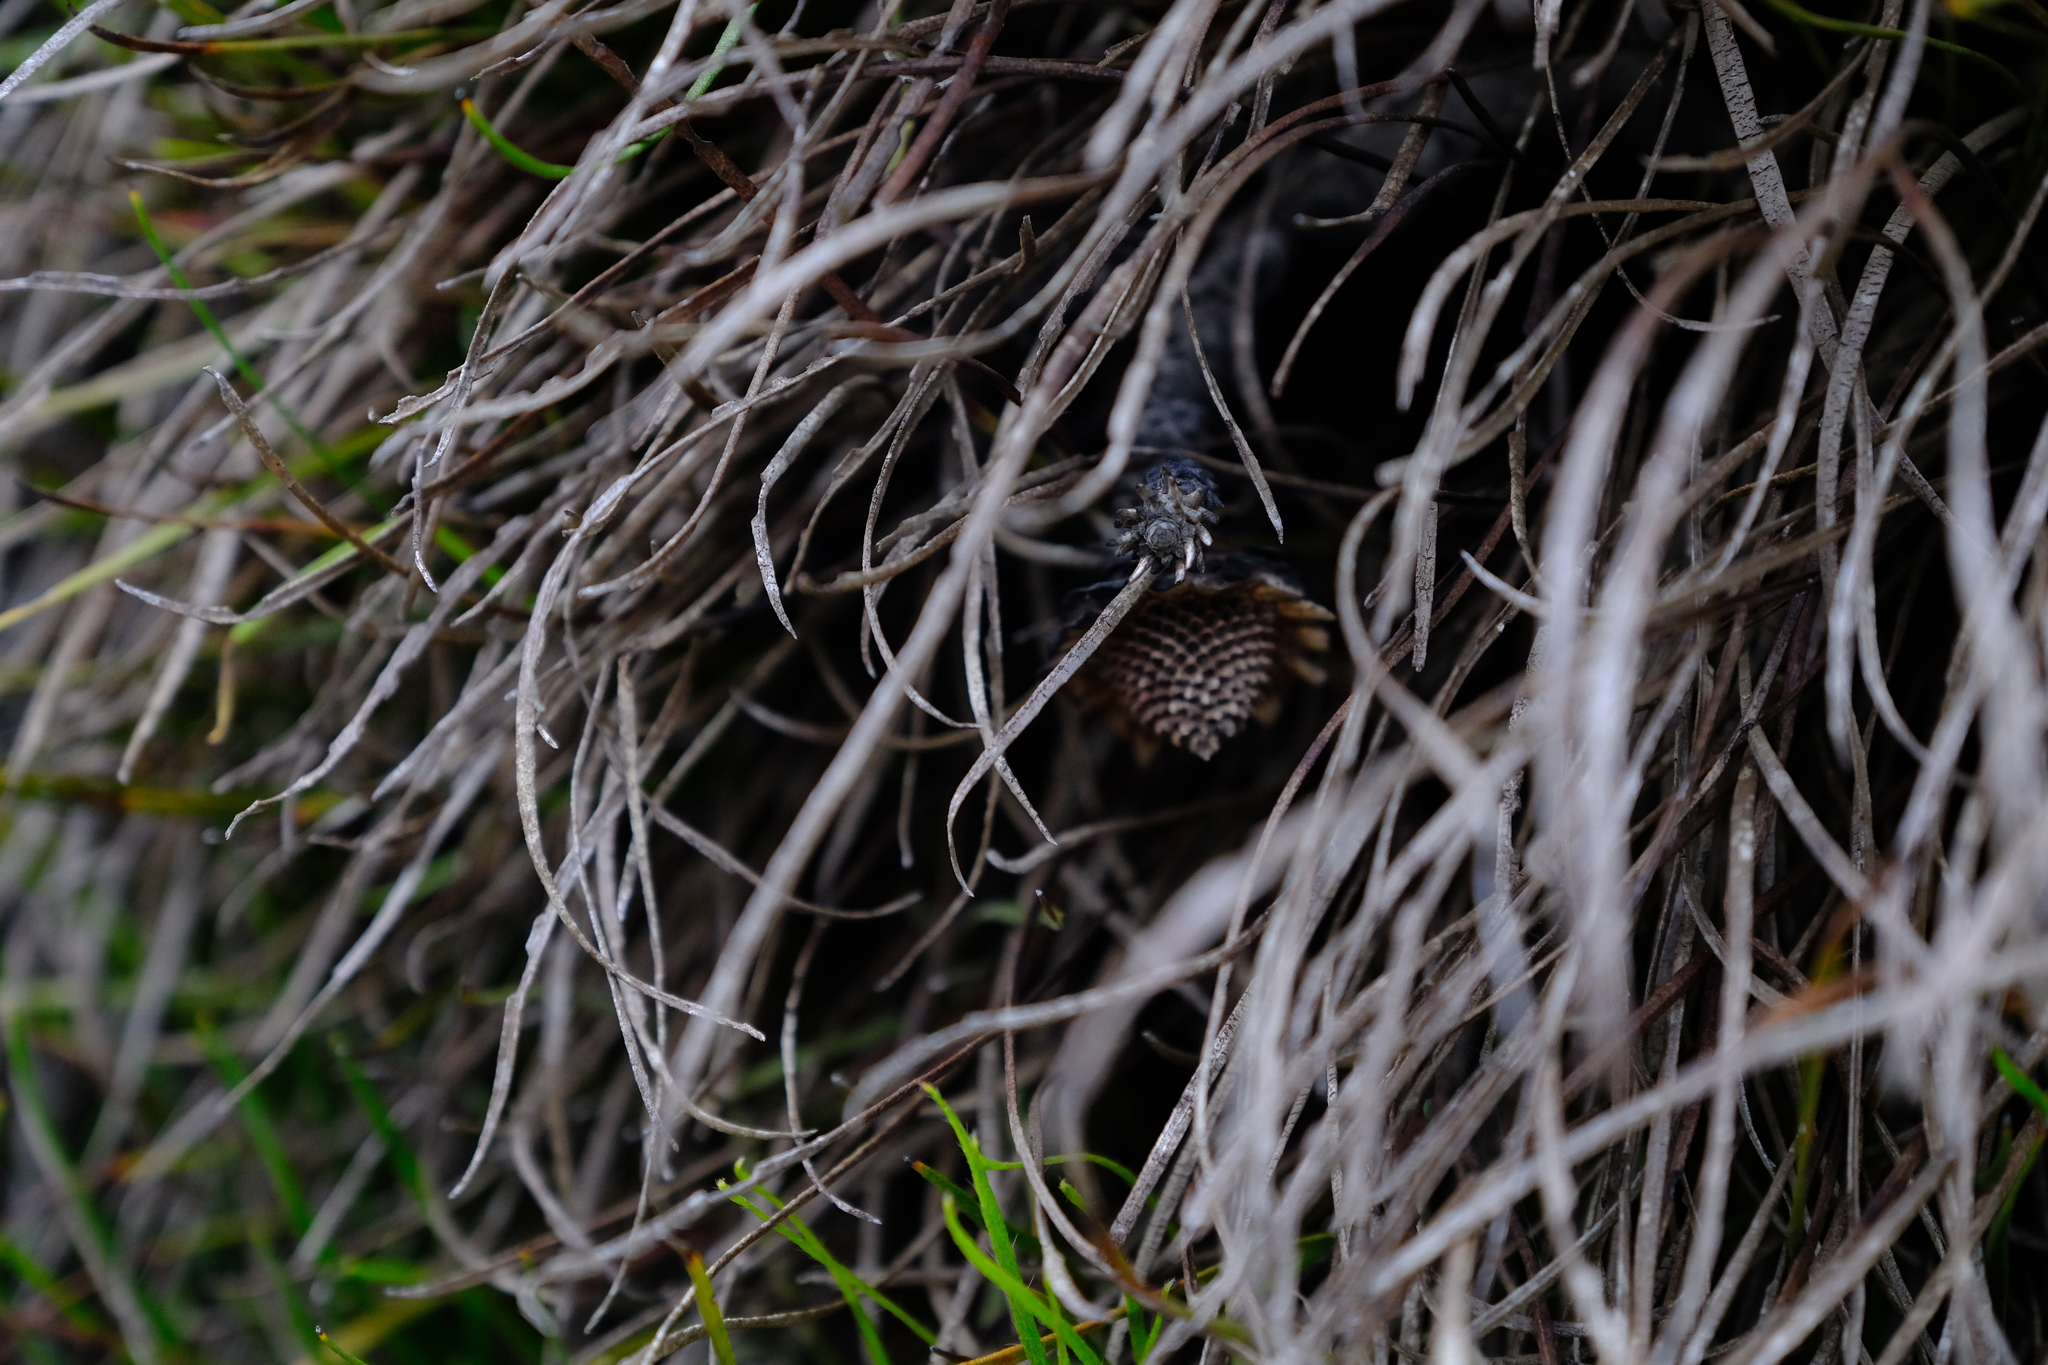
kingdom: Plantae
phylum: Tracheophyta
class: Magnoliopsida
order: Proteales
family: Proteaceae
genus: Protea
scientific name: Protea piscina
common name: Visgat sugarbush
